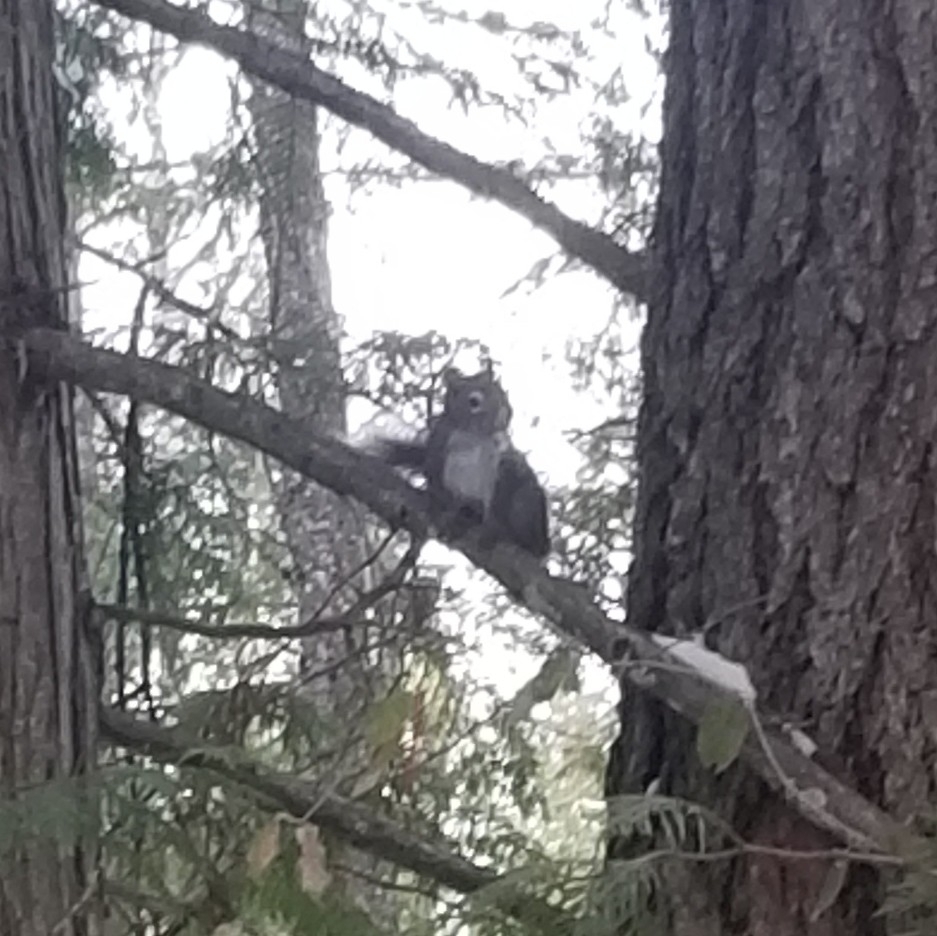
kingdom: Animalia
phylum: Chordata
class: Mammalia
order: Rodentia
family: Sciuridae
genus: Tamiasciurus
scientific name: Tamiasciurus hudsonicus
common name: Red squirrel
